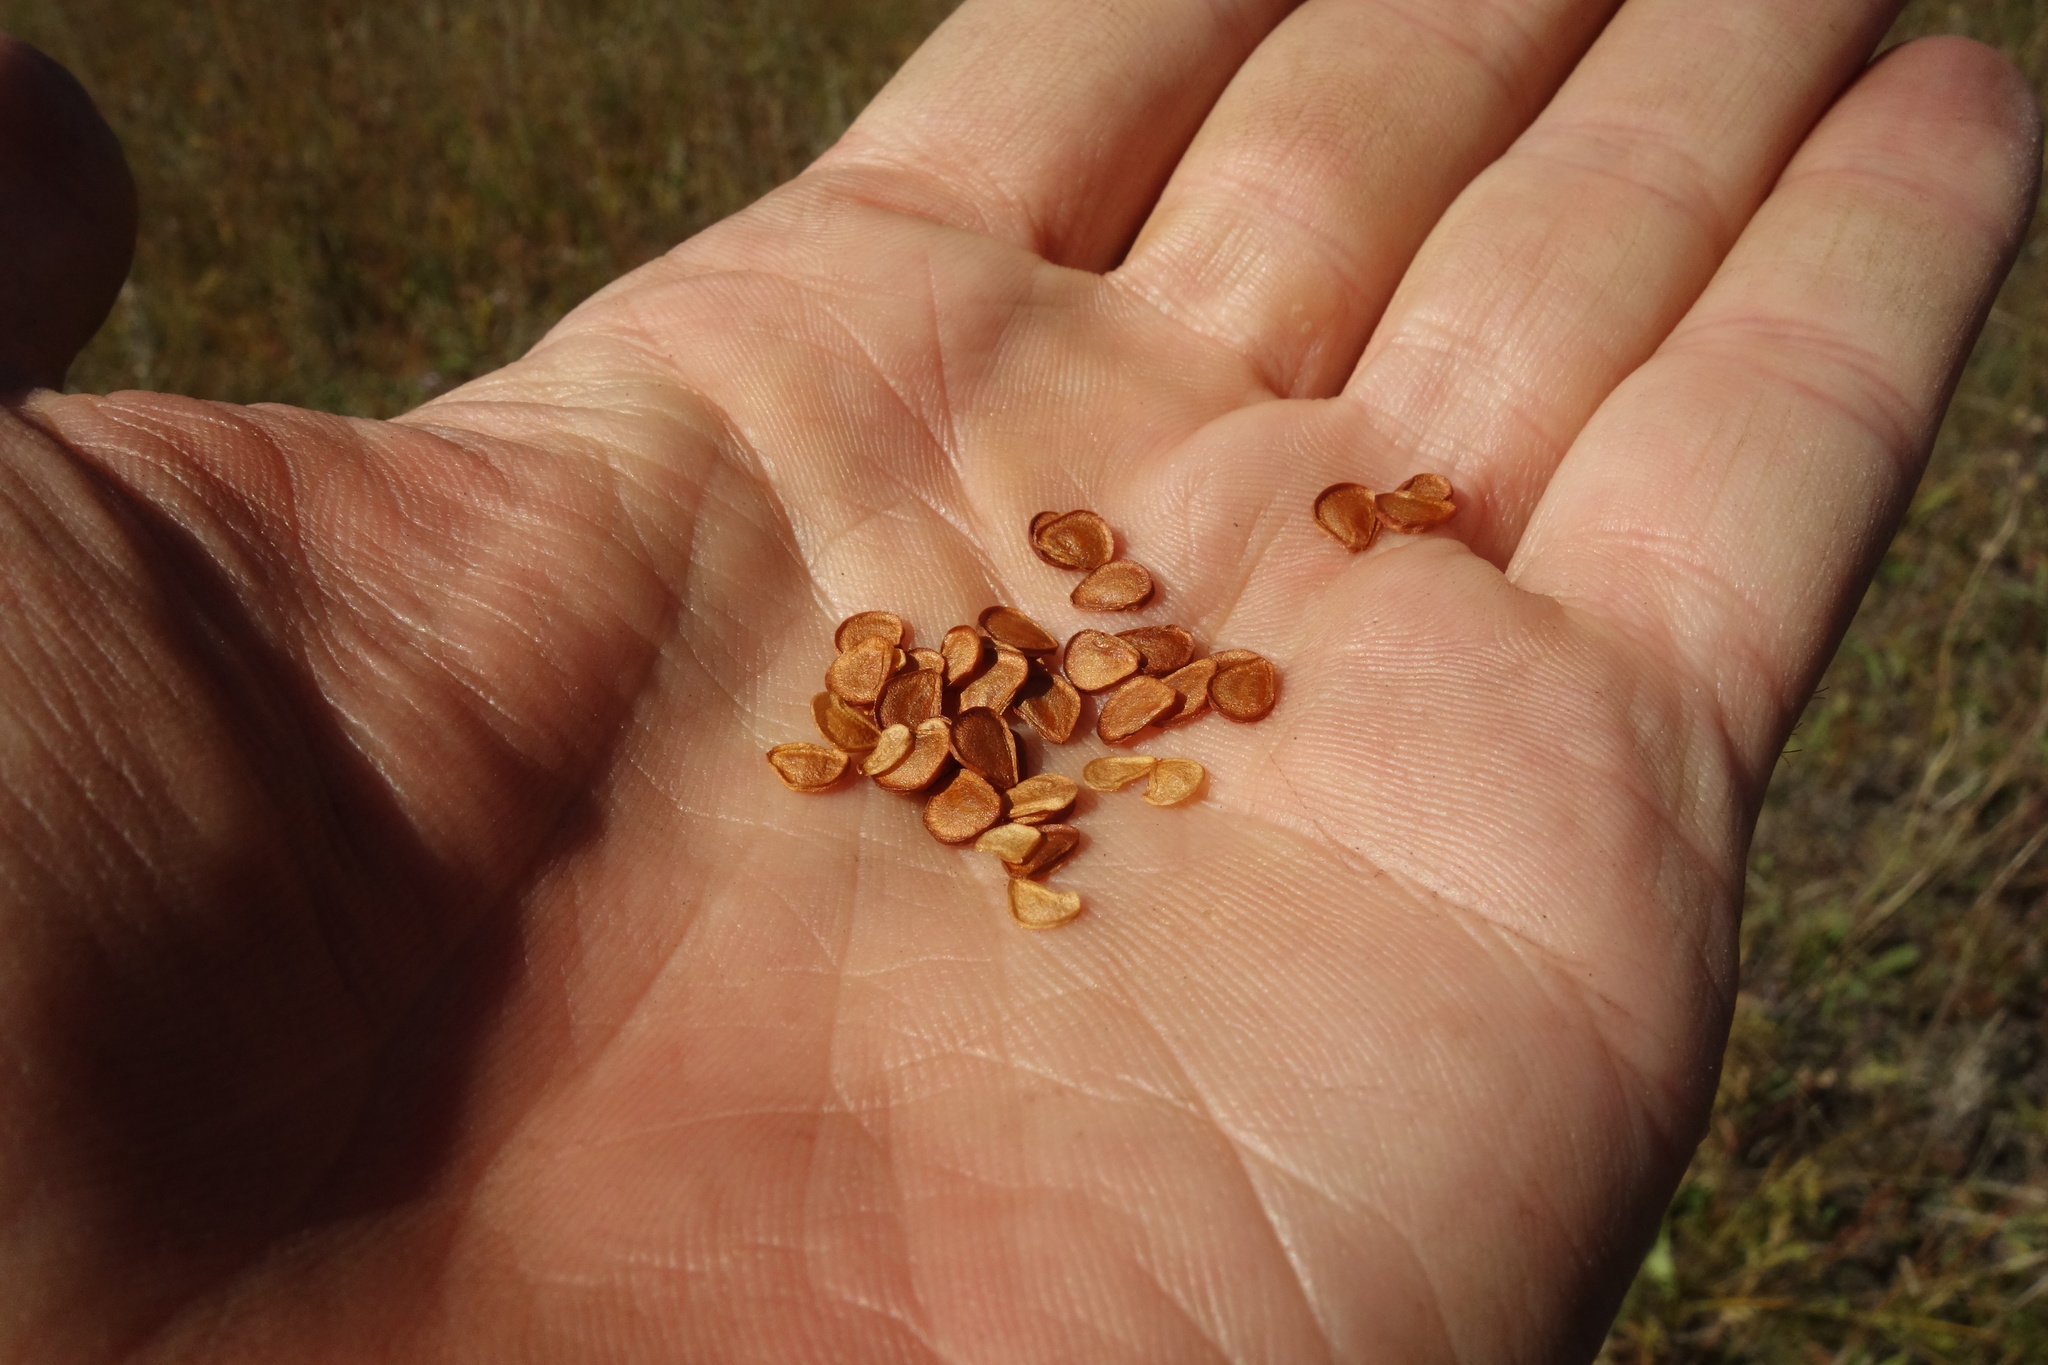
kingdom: Plantae
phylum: Tracheophyta
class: Liliopsida
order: Liliales
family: Liliaceae
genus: Lilium
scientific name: Lilium pumilum
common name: Coral lily
